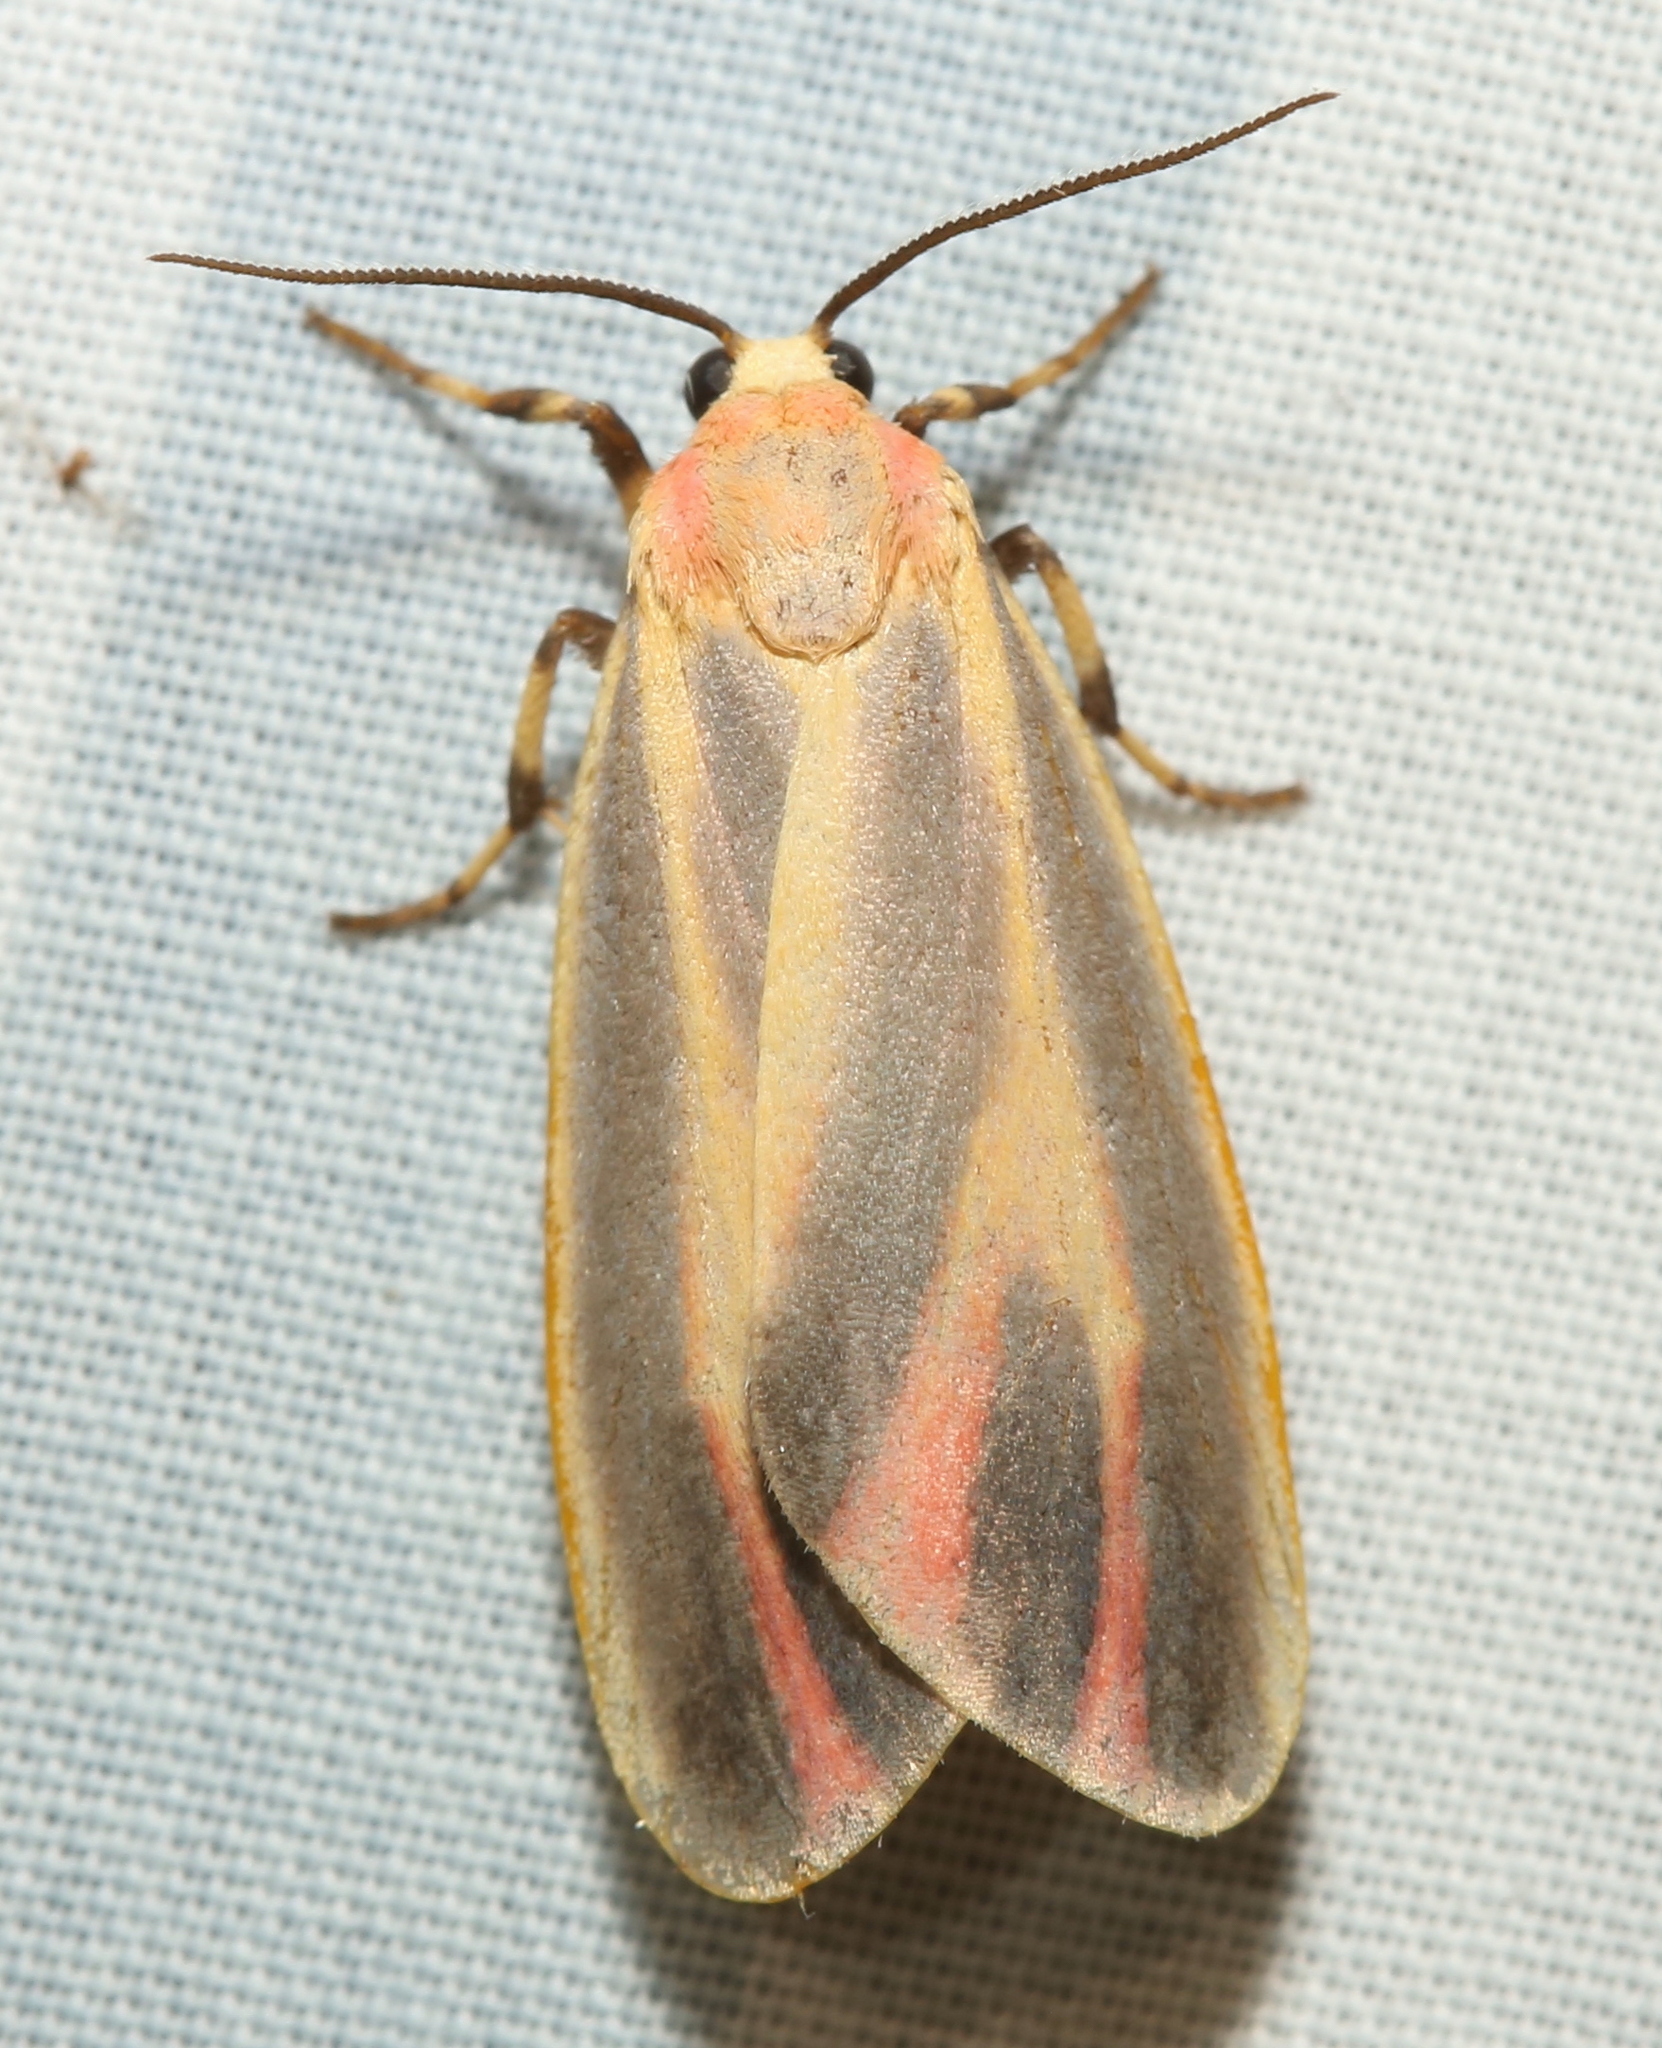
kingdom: Animalia
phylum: Arthropoda
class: Insecta
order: Lepidoptera
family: Erebidae
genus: Hypoprepia
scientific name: Hypoprepia fucosa
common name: Painted lichen moth
